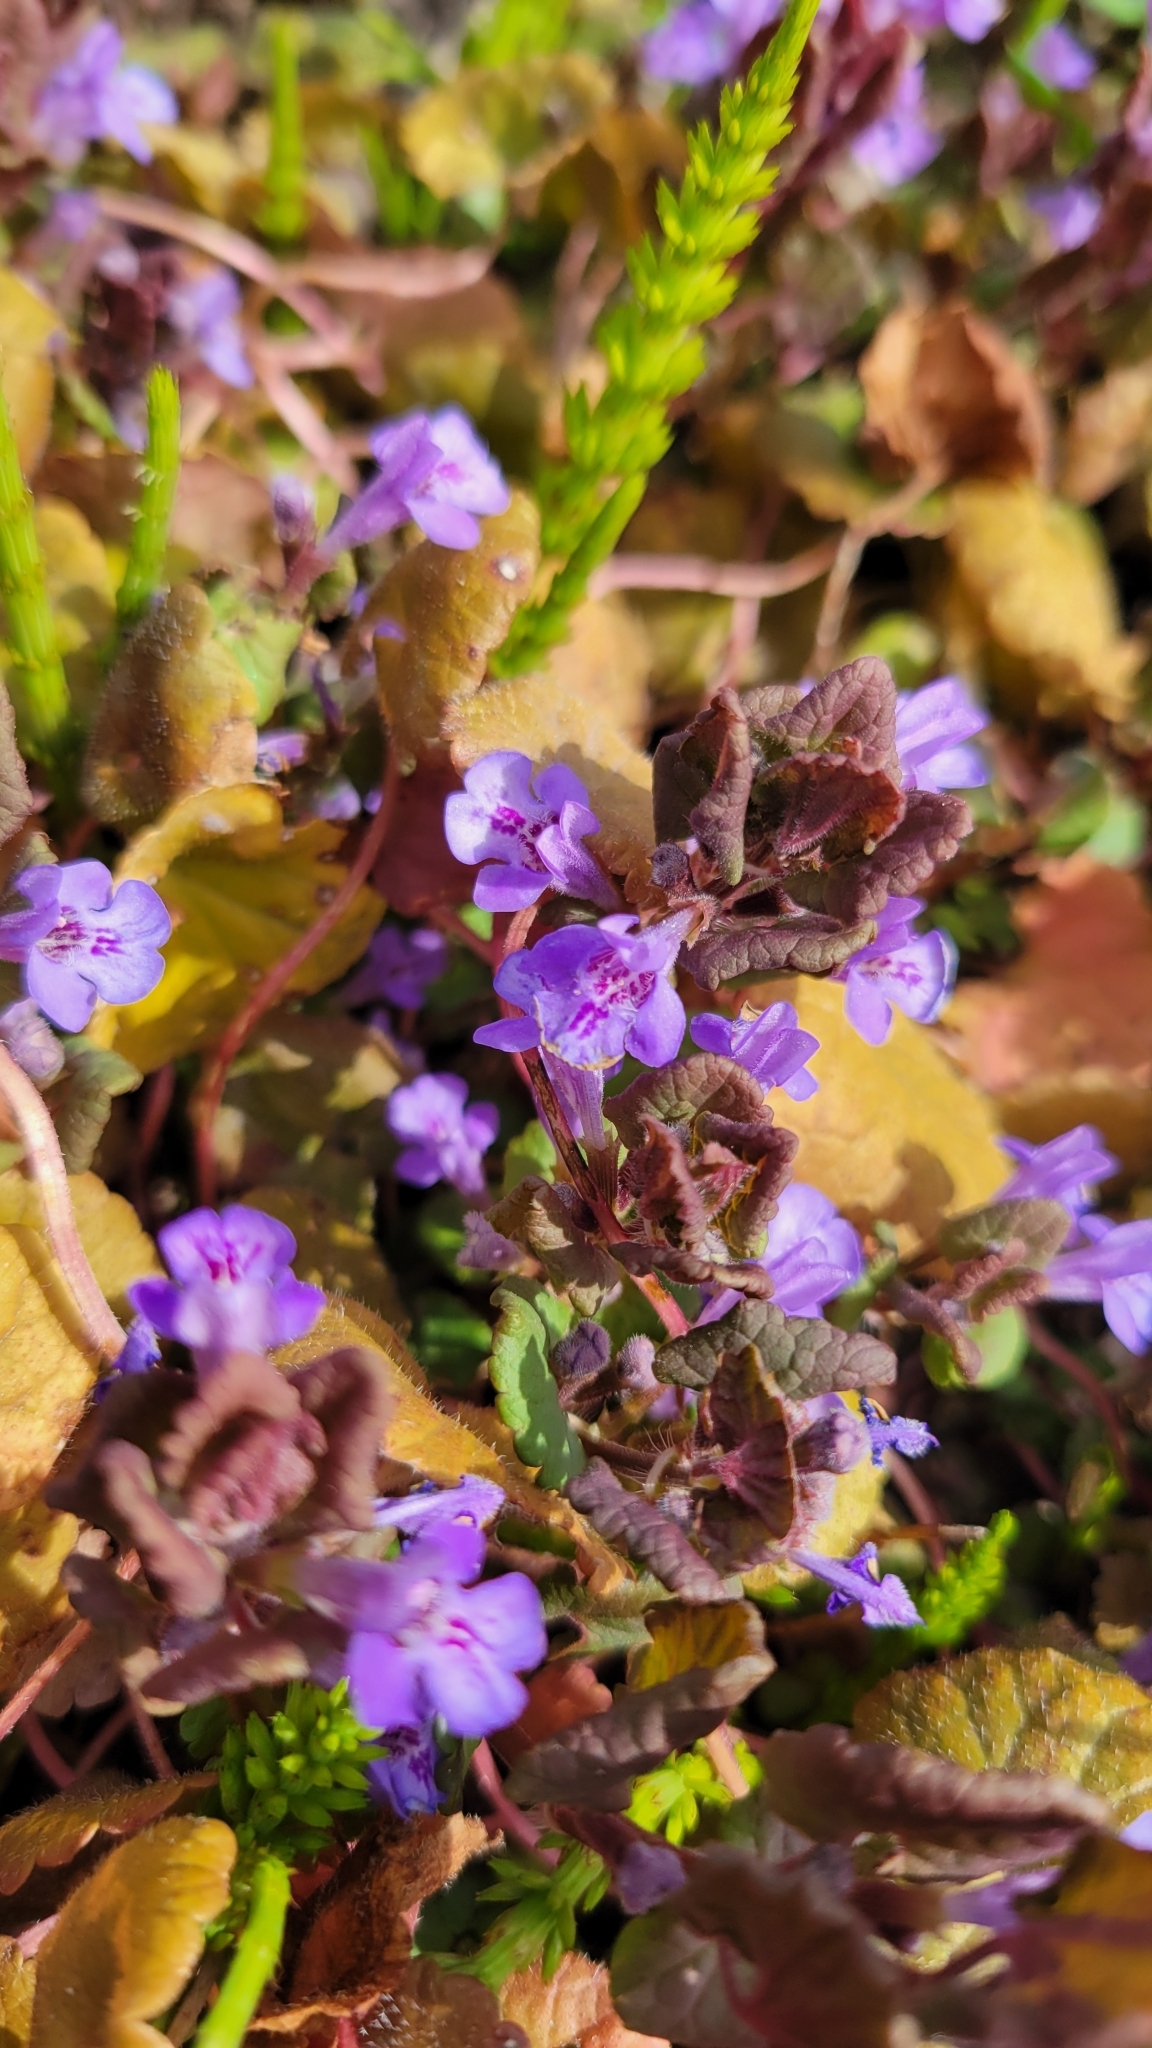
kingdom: Plantae
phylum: Tracheophyta
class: Magnoliopsida
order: Lamiales
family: Lamiaceae
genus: Glechoma
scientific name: Glechoma hederacea
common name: Ground ivy
